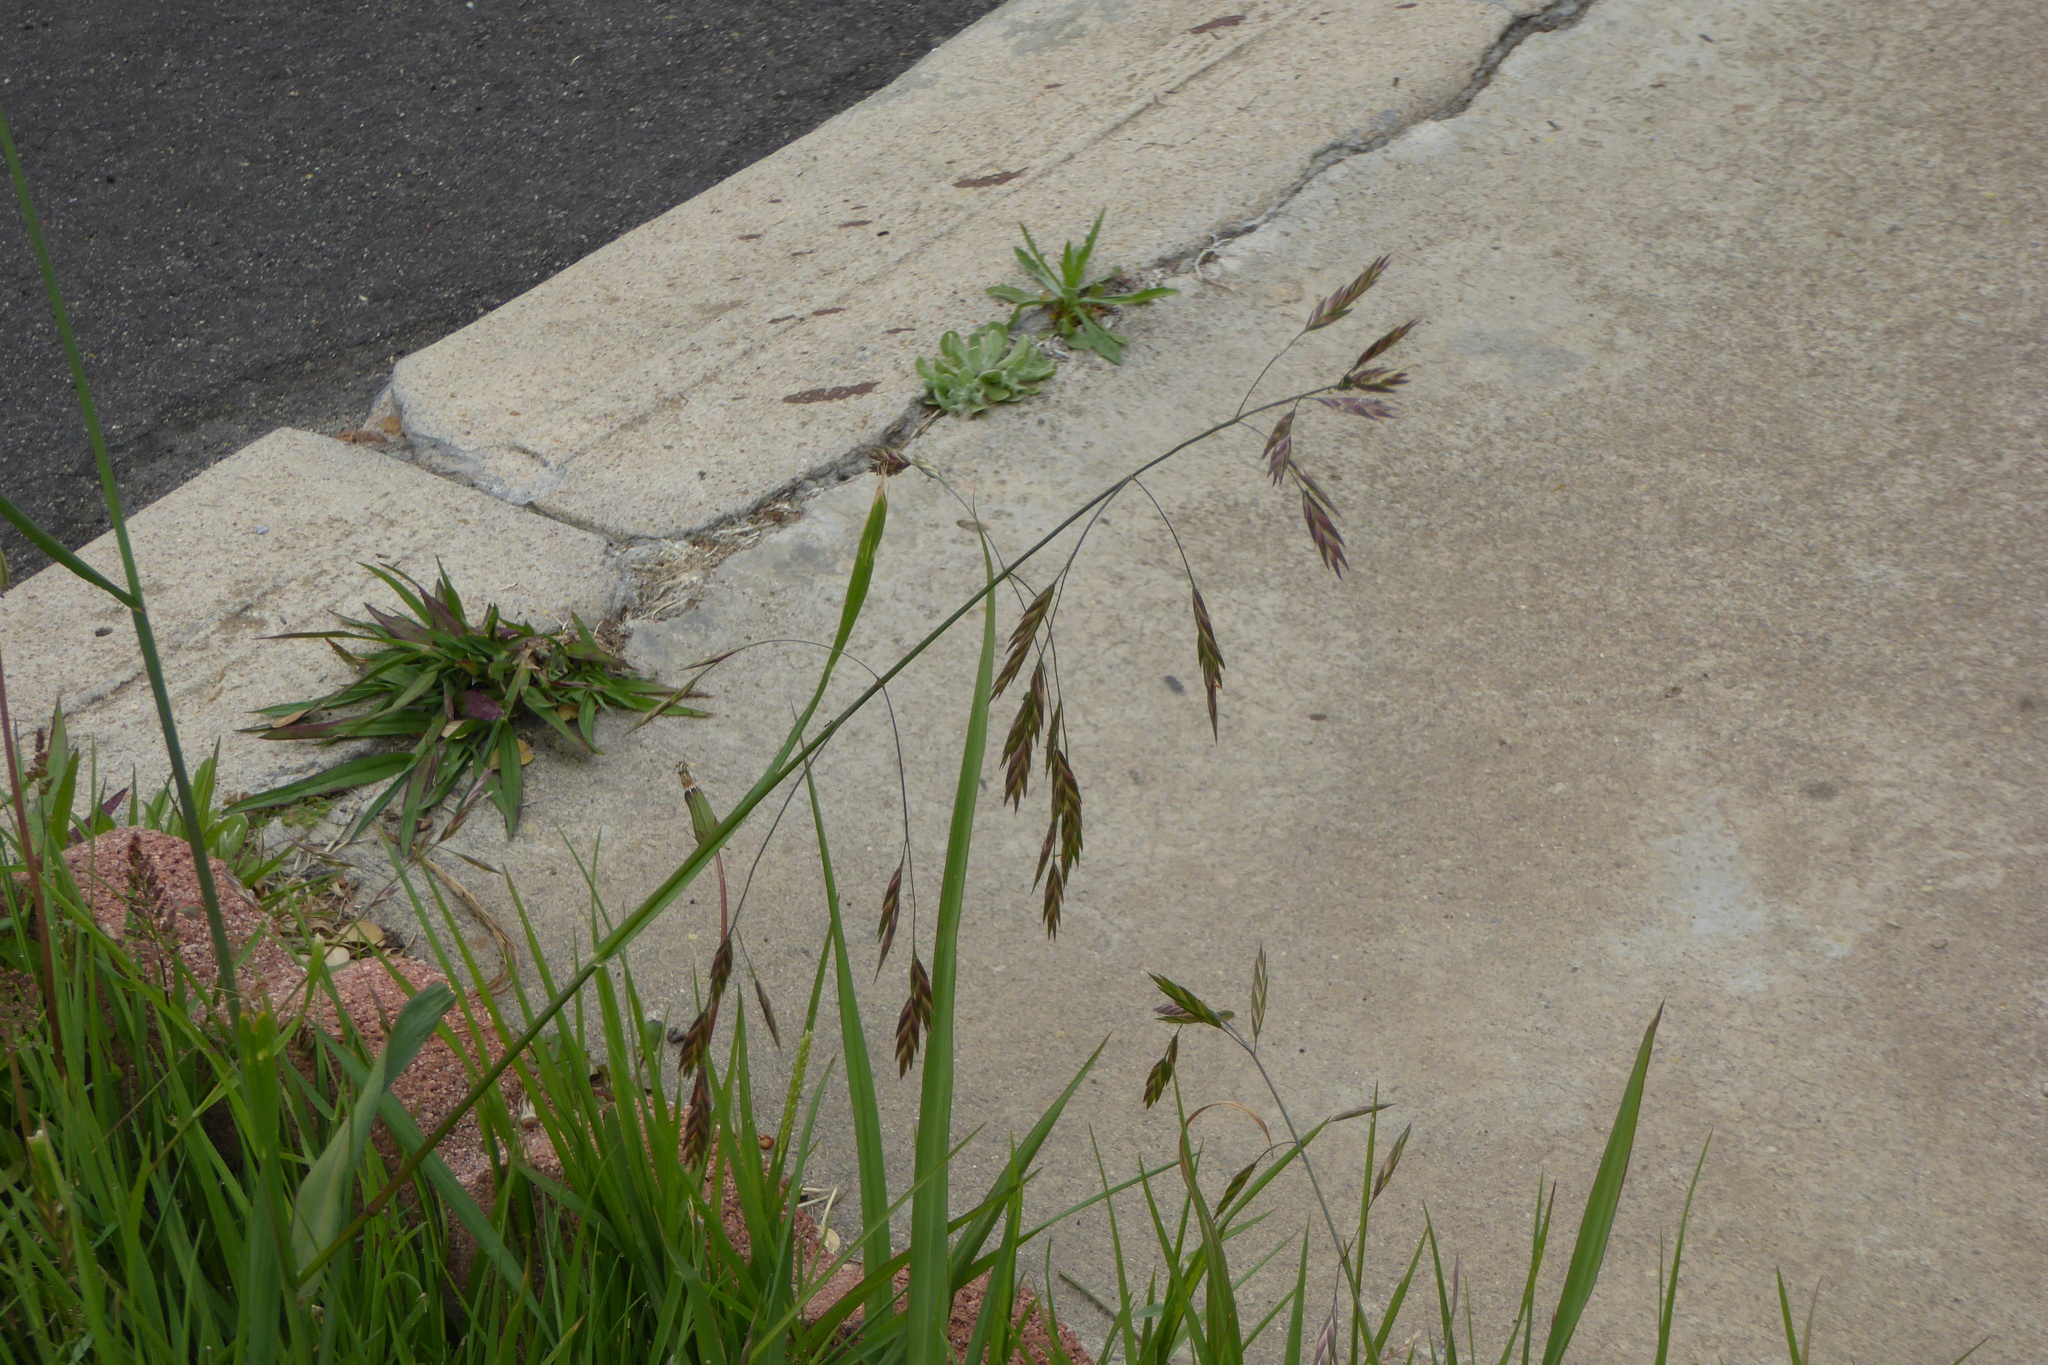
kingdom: Plantae
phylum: Tracheophyta
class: Liliopsida
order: Poales
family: Poaceae
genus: Bromus
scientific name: Bromus catharticus
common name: Rescuegrass
